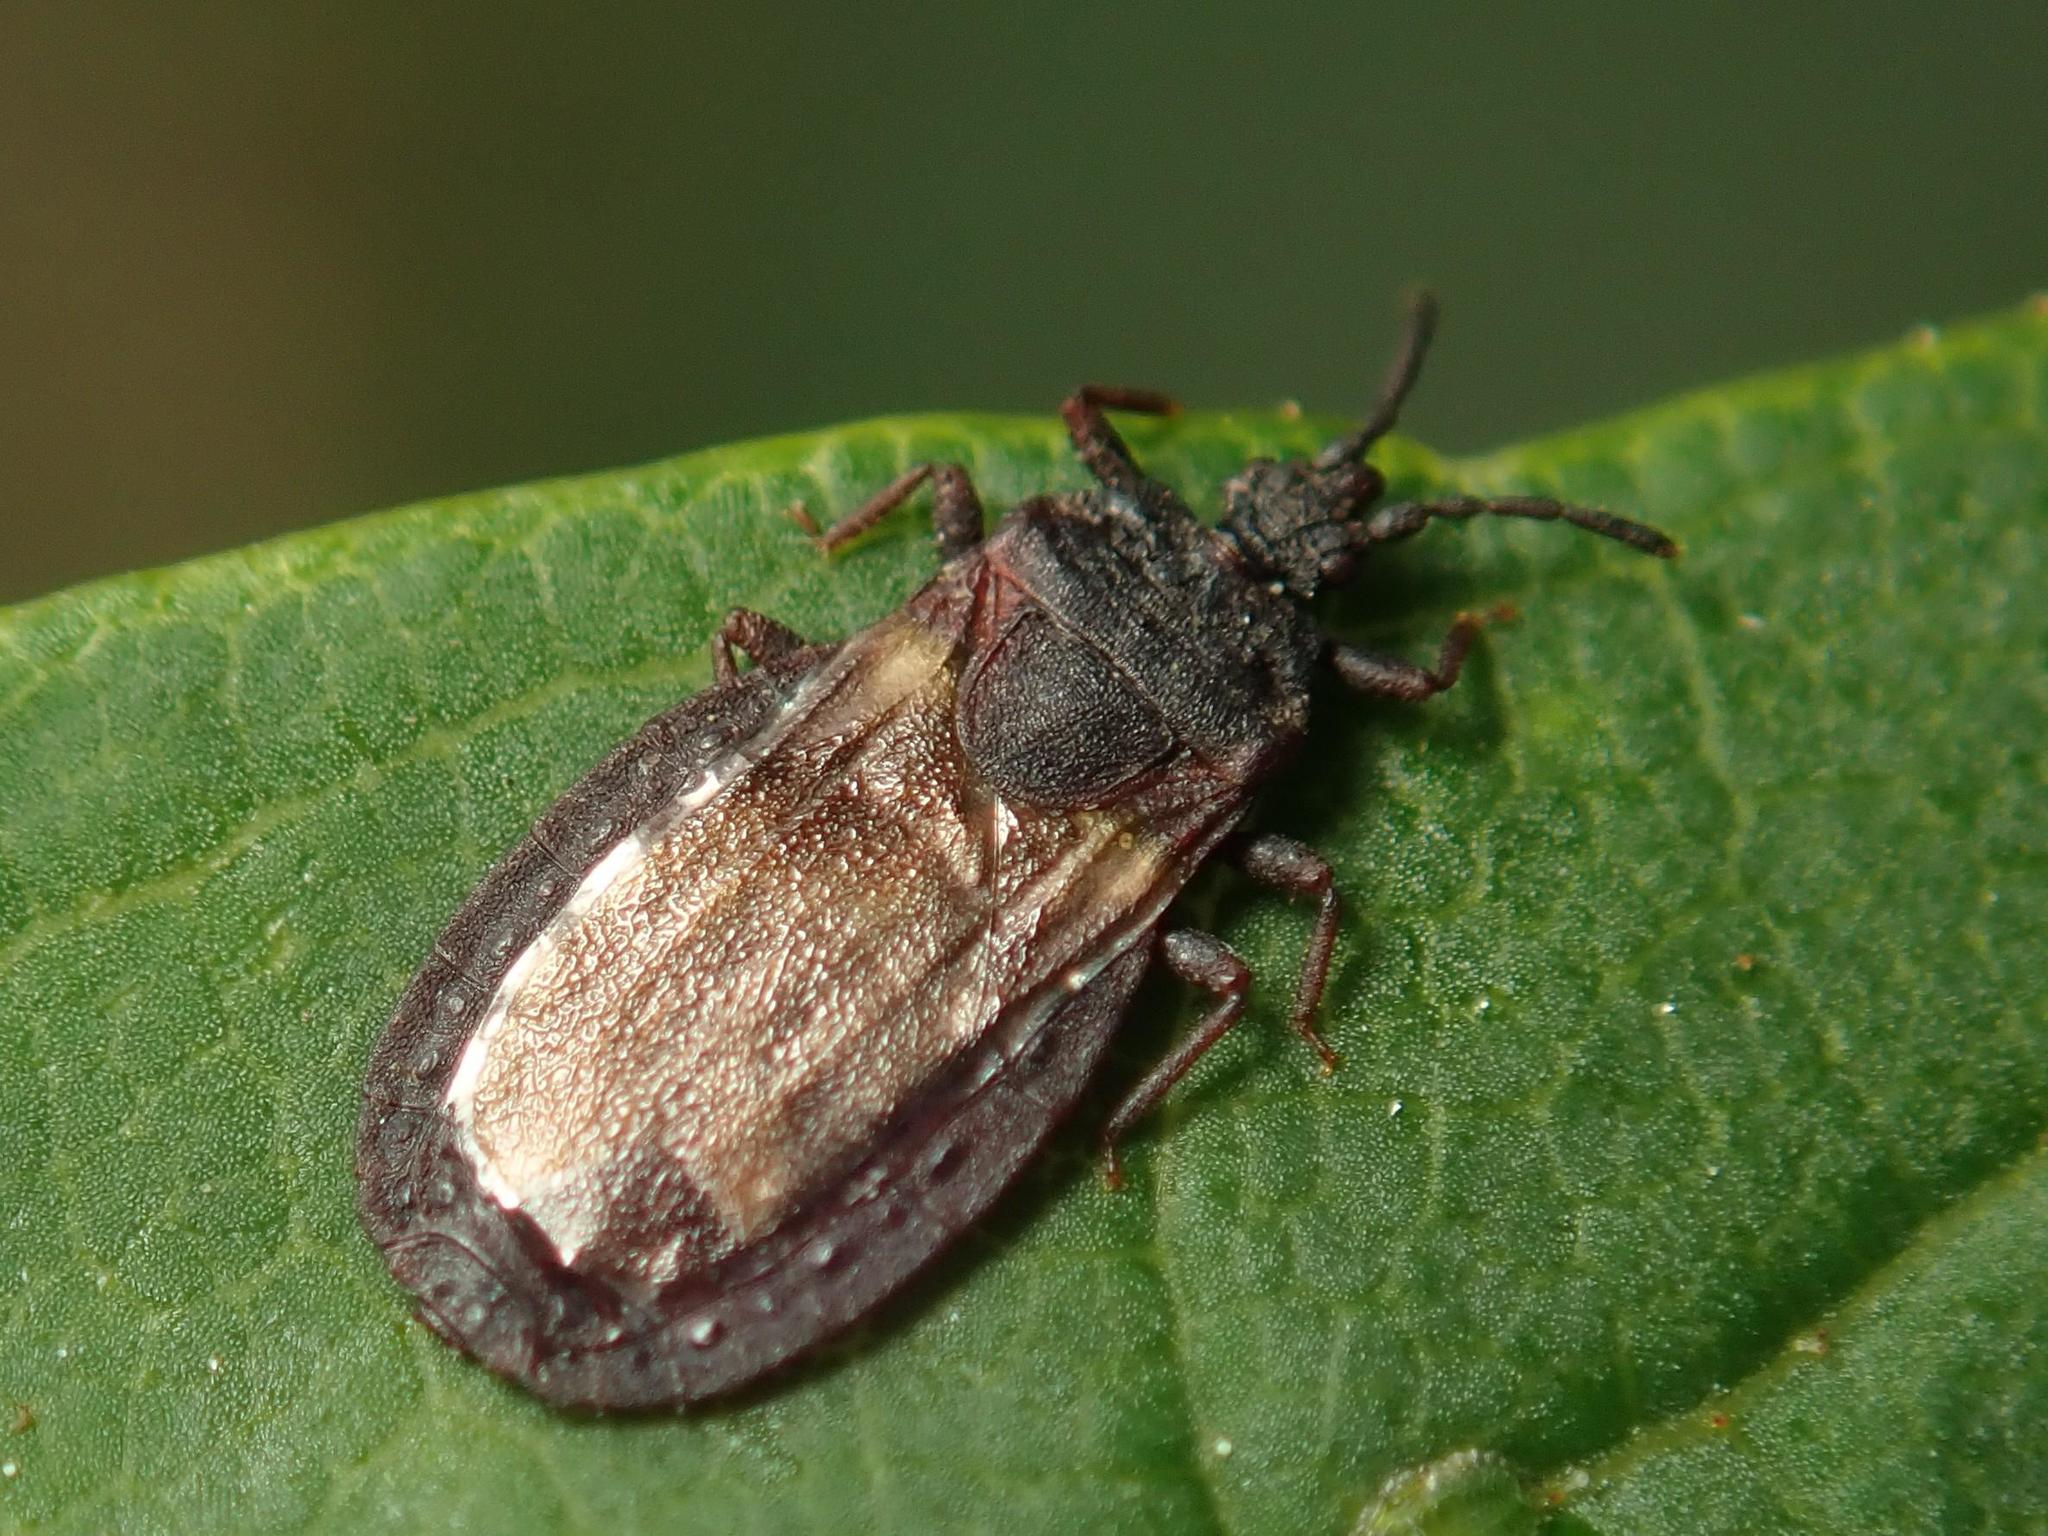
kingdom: Animalia
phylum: Arthropoda
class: Insecta
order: Hemiptera
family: Aradidae
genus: Aneurus
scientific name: Aneurus avenius
